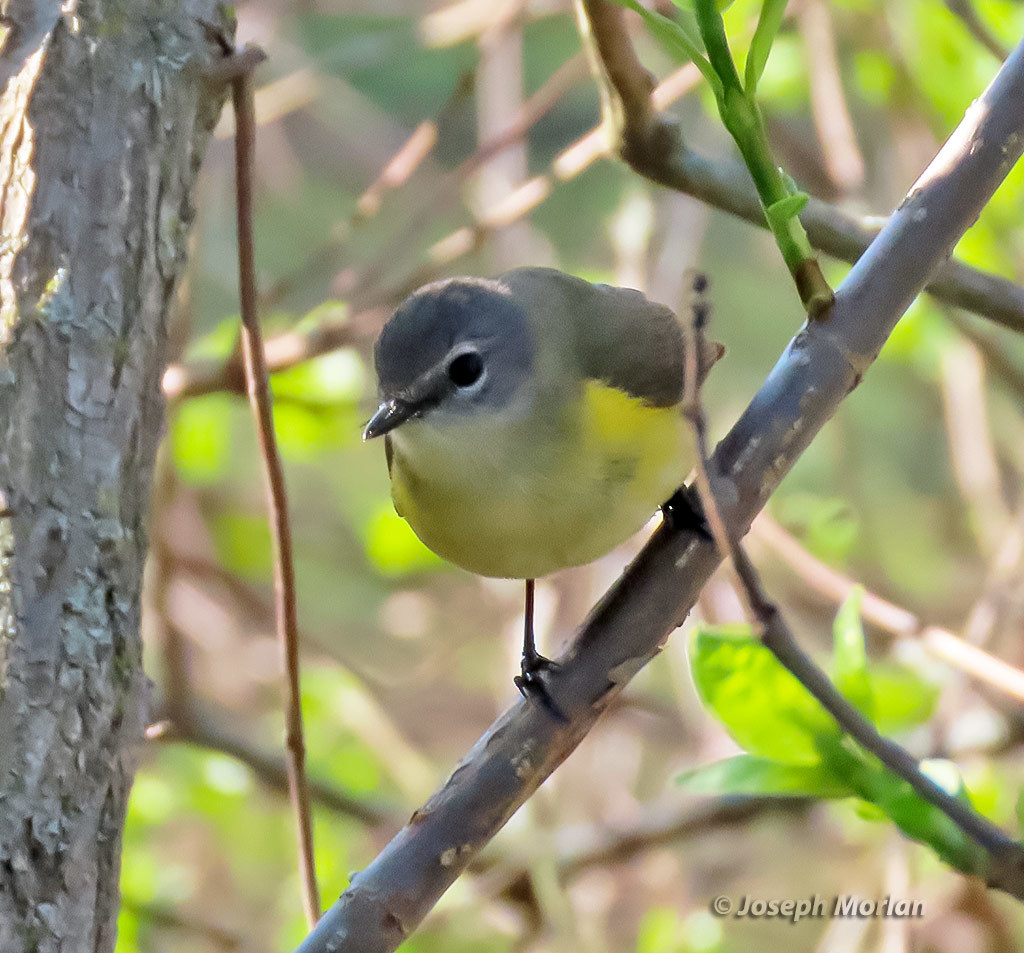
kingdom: Animalia
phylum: Chordata
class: Aves
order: Passeriformes
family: Parulidae
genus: Setophaga
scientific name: Setophaga ruticilla
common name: American redstart
